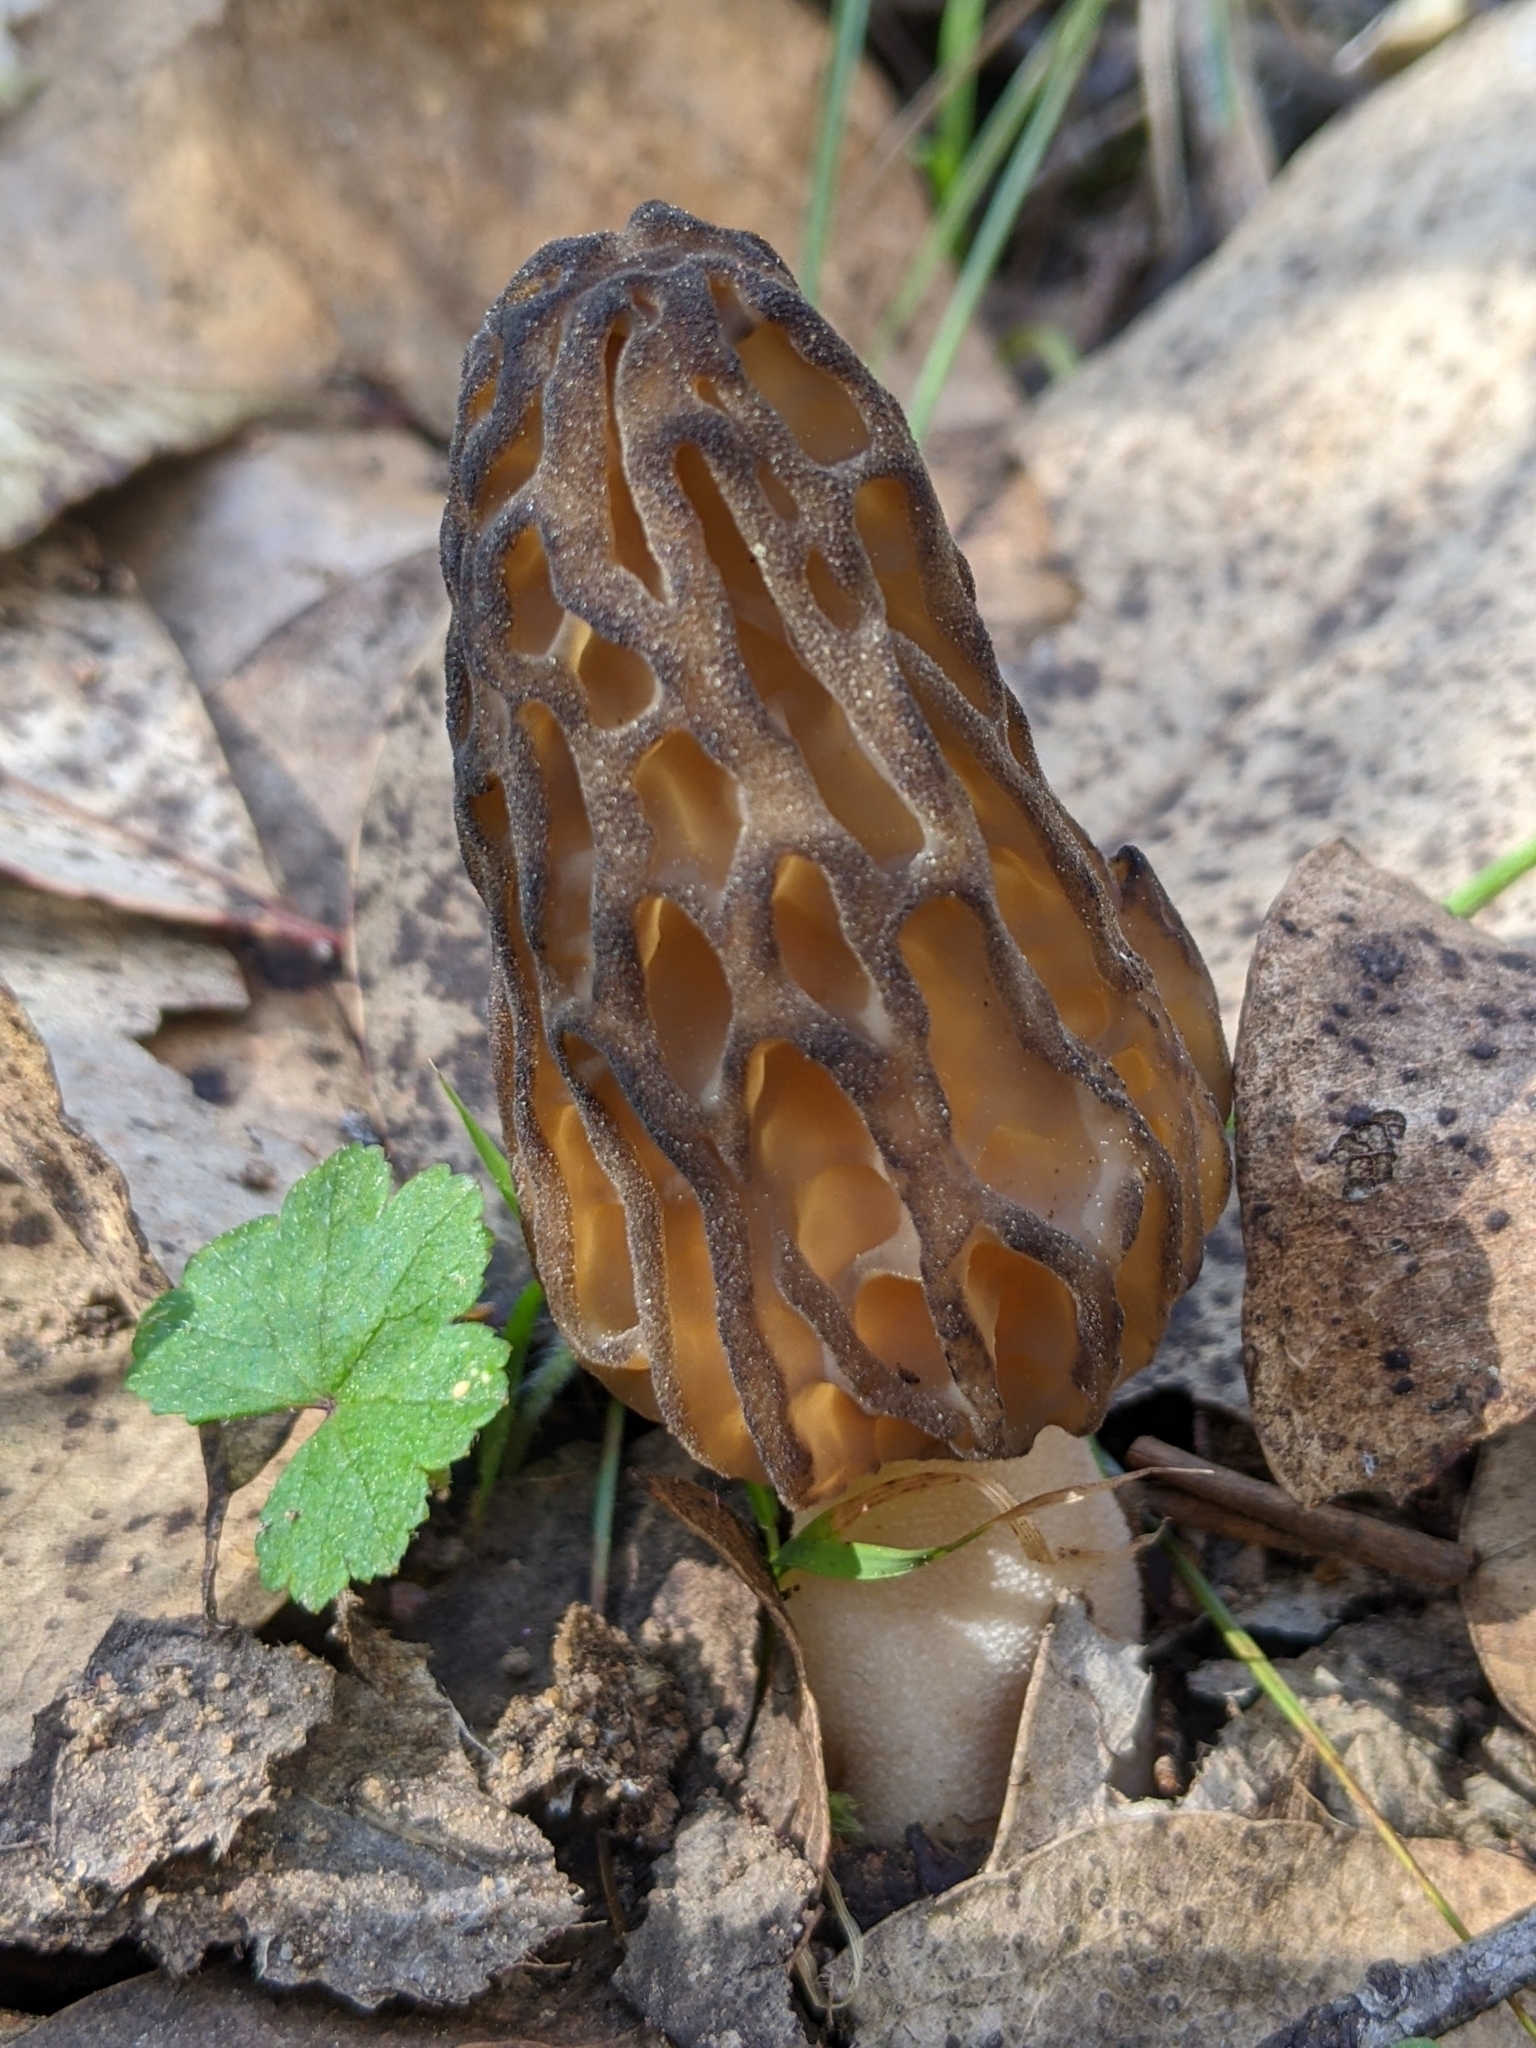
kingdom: Fungi
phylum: Ascomycota
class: Pezizomycetes
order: Pezizales
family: Morchellaceae
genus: Morchella
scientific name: Morchella australiana
